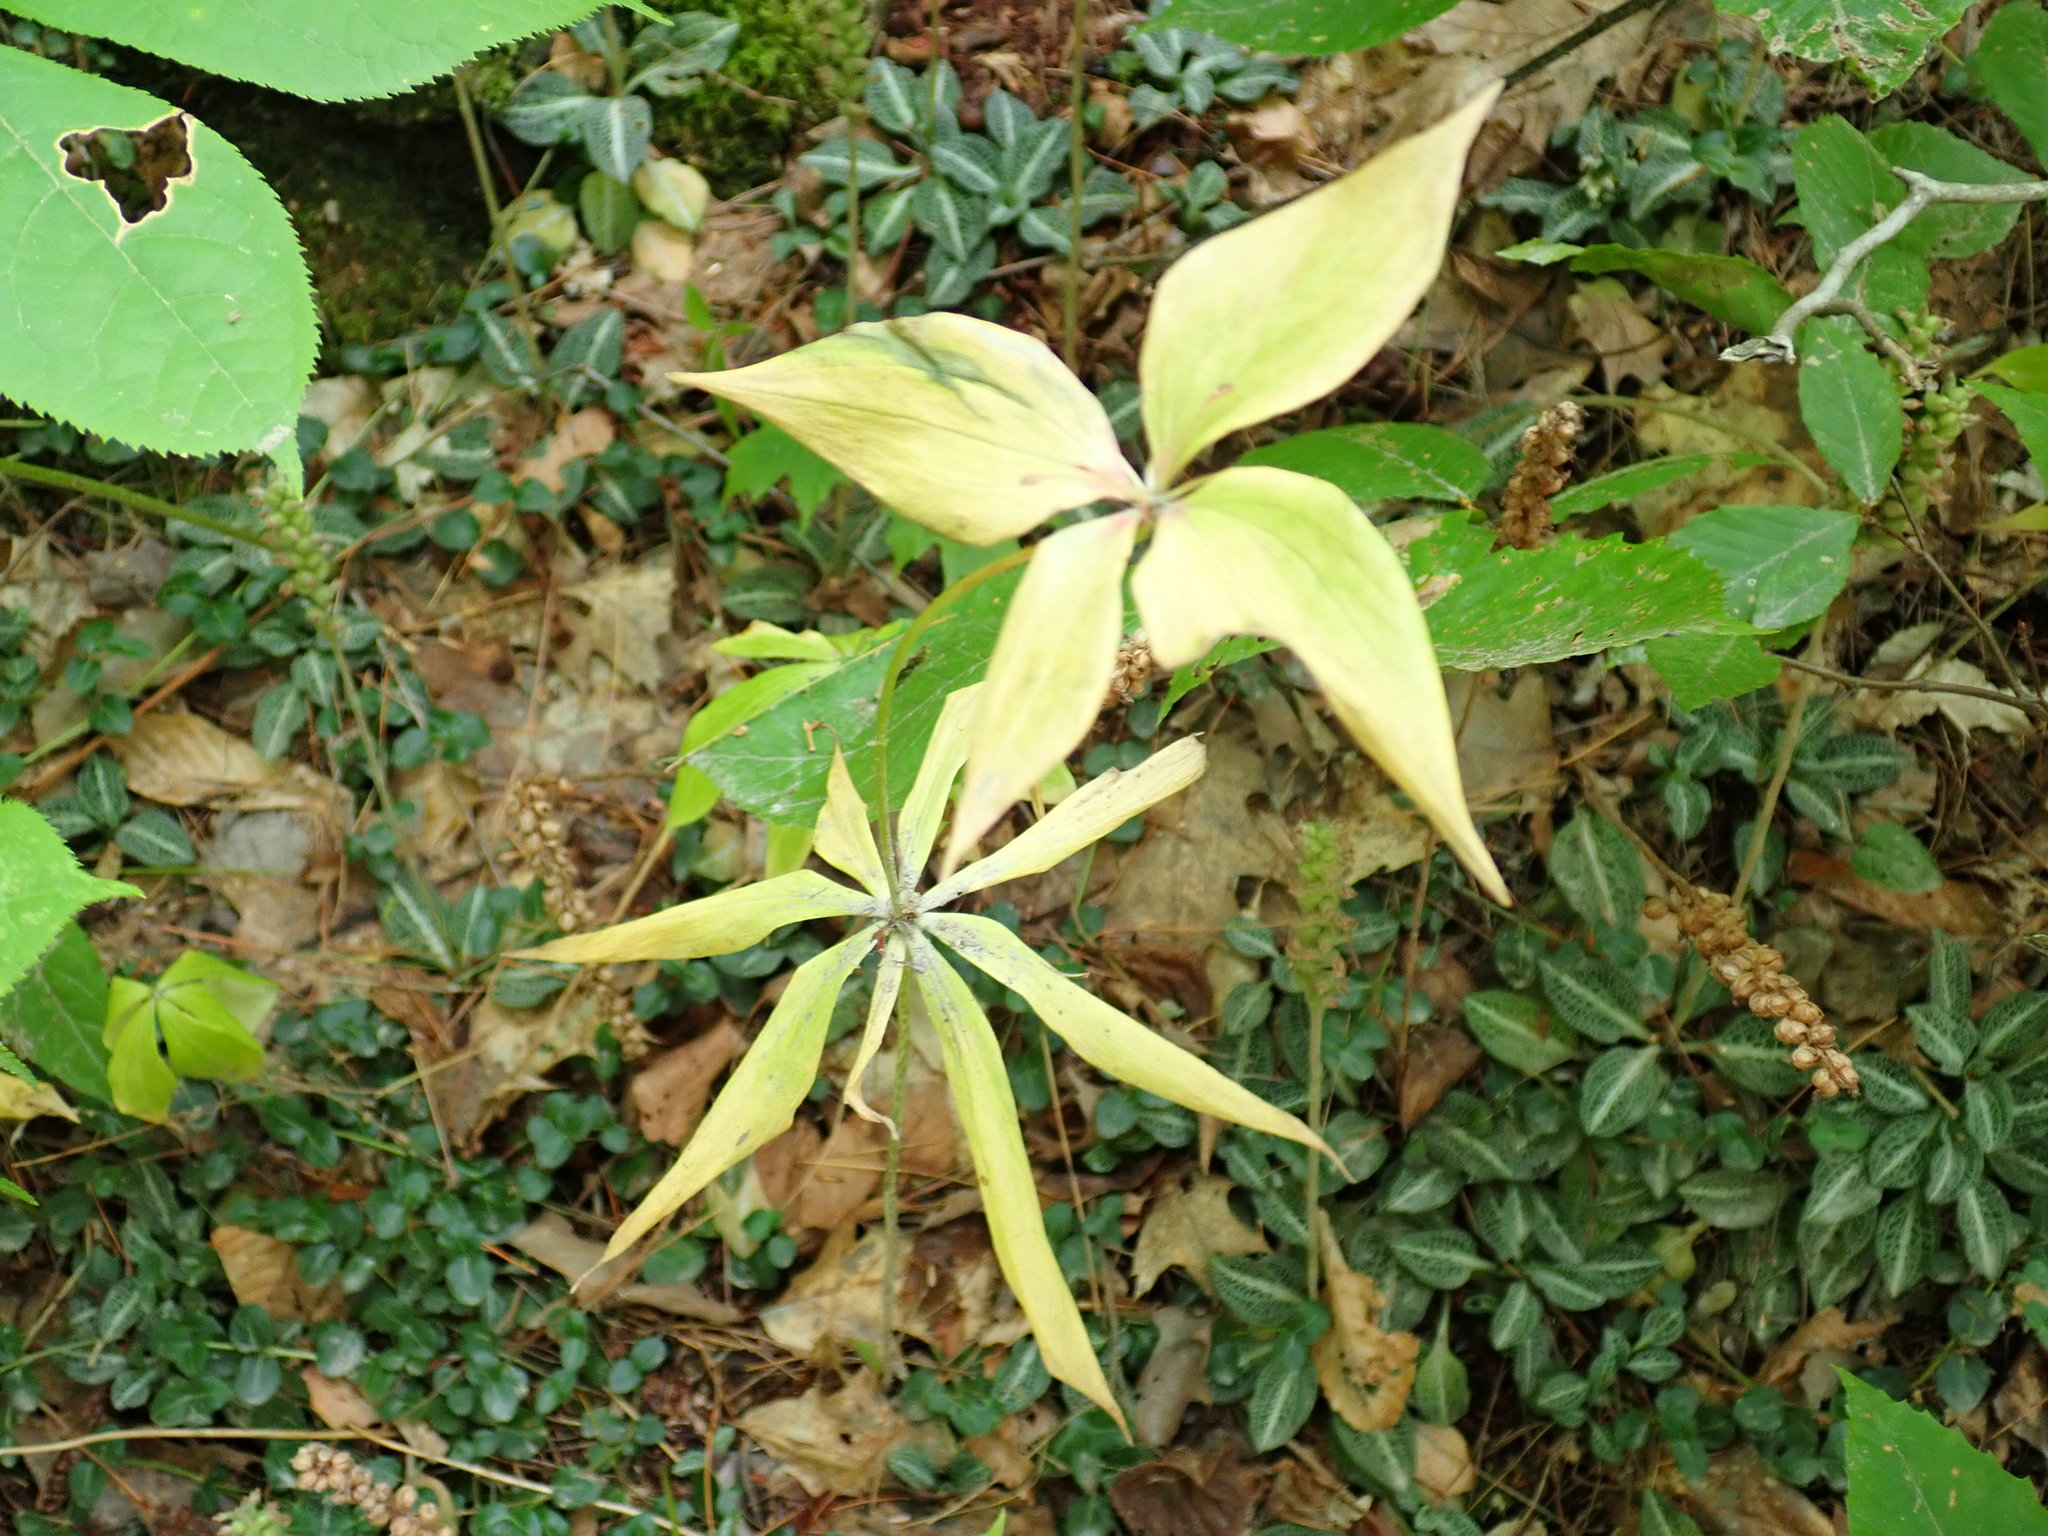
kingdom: Plantae
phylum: Tracheophyta
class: Liliopsida
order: Liliales
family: Liliaceae
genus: Medeola
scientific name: Medeola virginiana
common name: Indian cucumber-root
